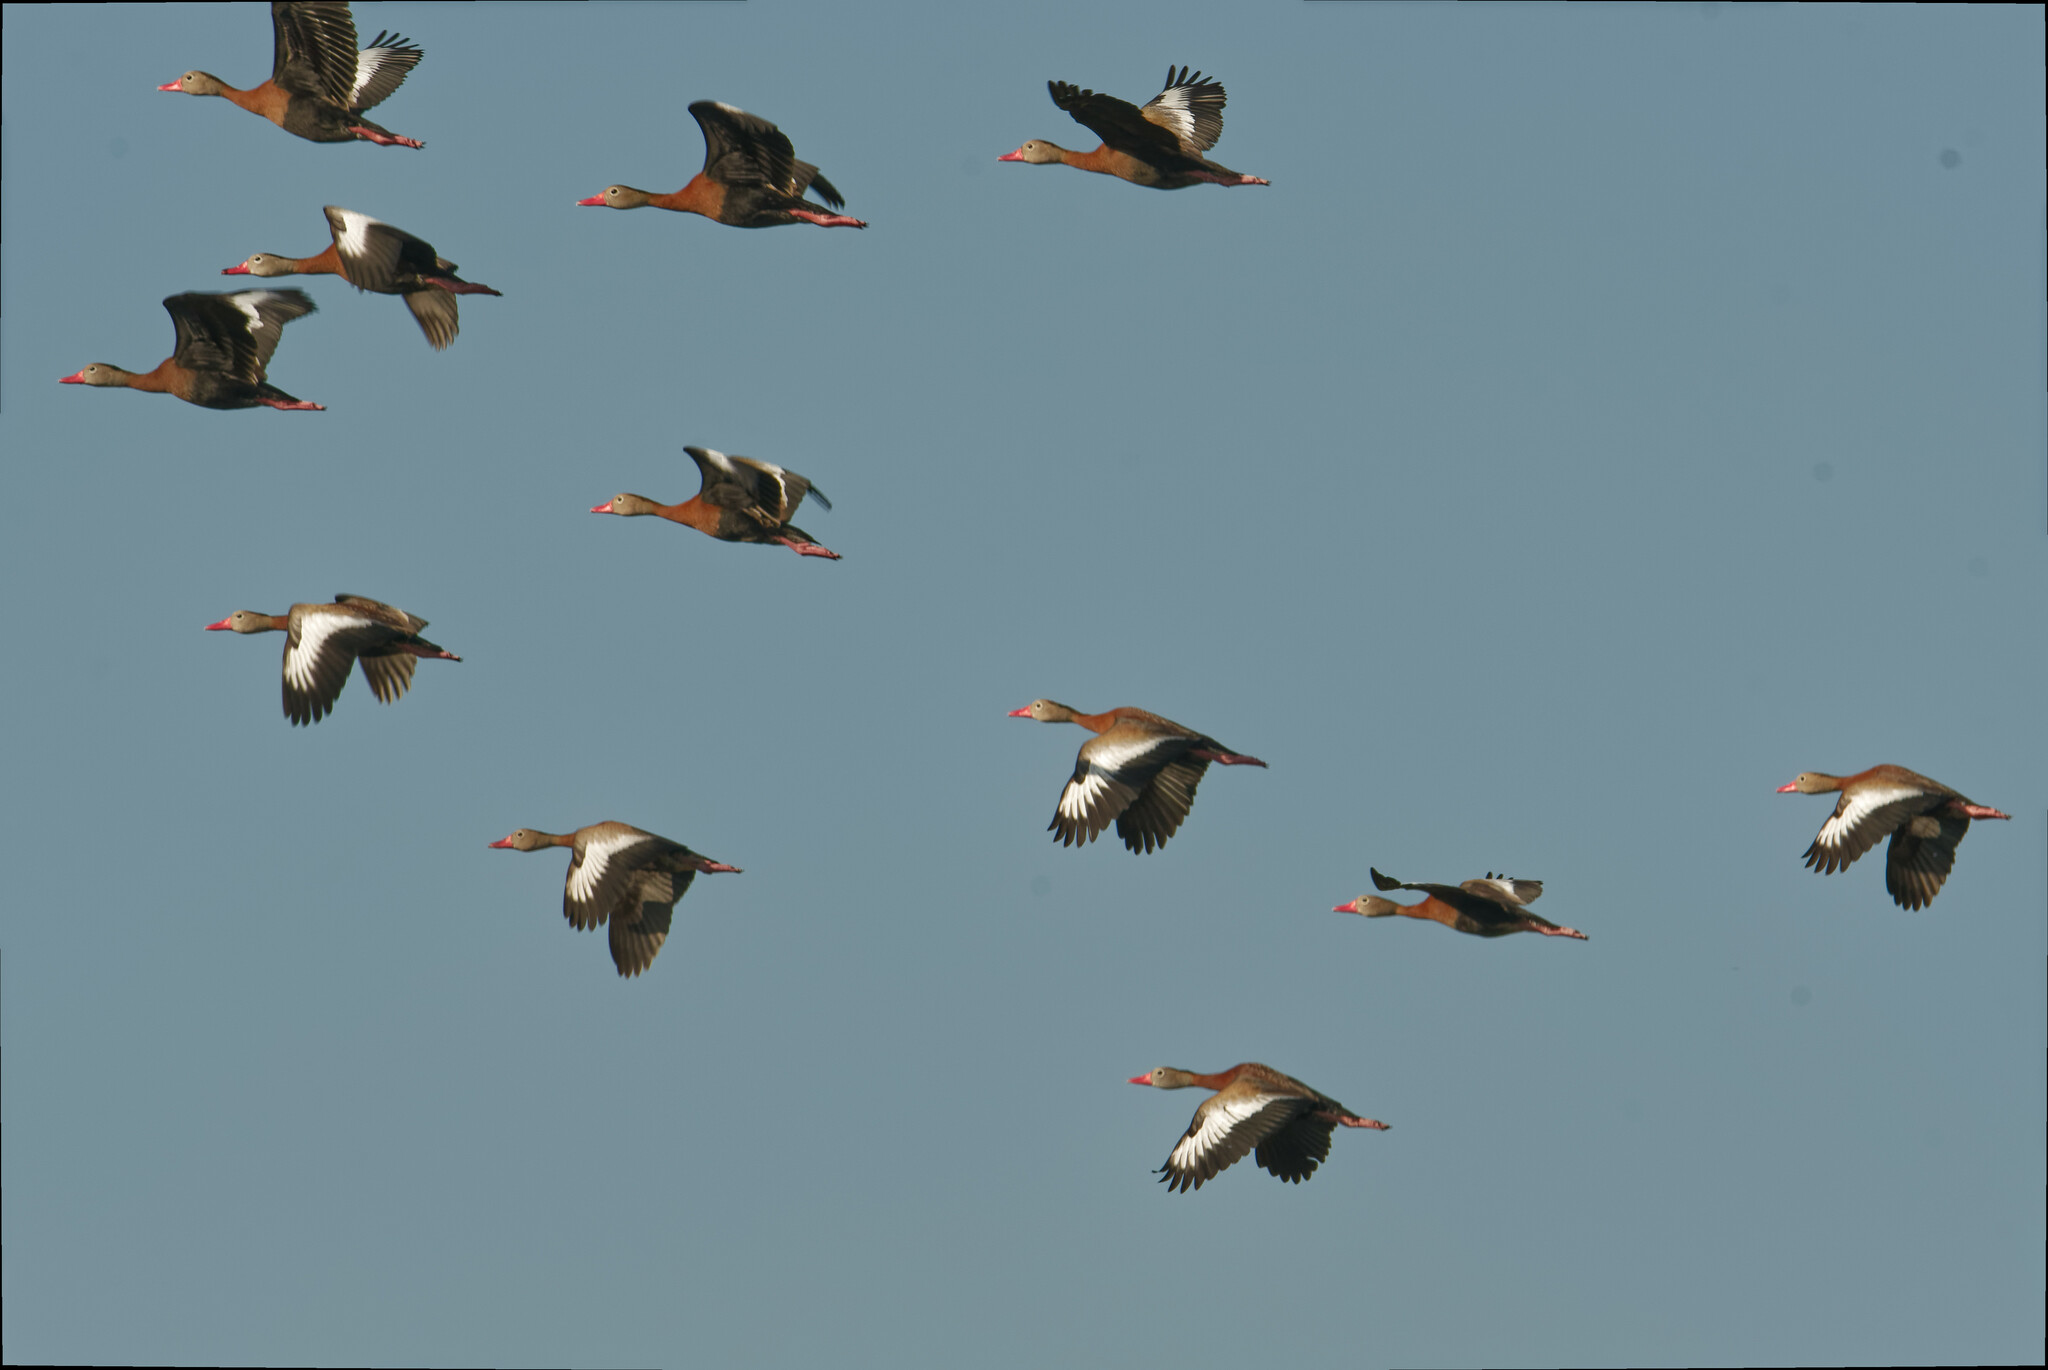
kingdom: Animalia
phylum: Chordata
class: Aves
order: Anseriformes
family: Anatidae
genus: Dendrocygna
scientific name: Dendrocygna autumnalis
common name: Black-bellied whistling duck
